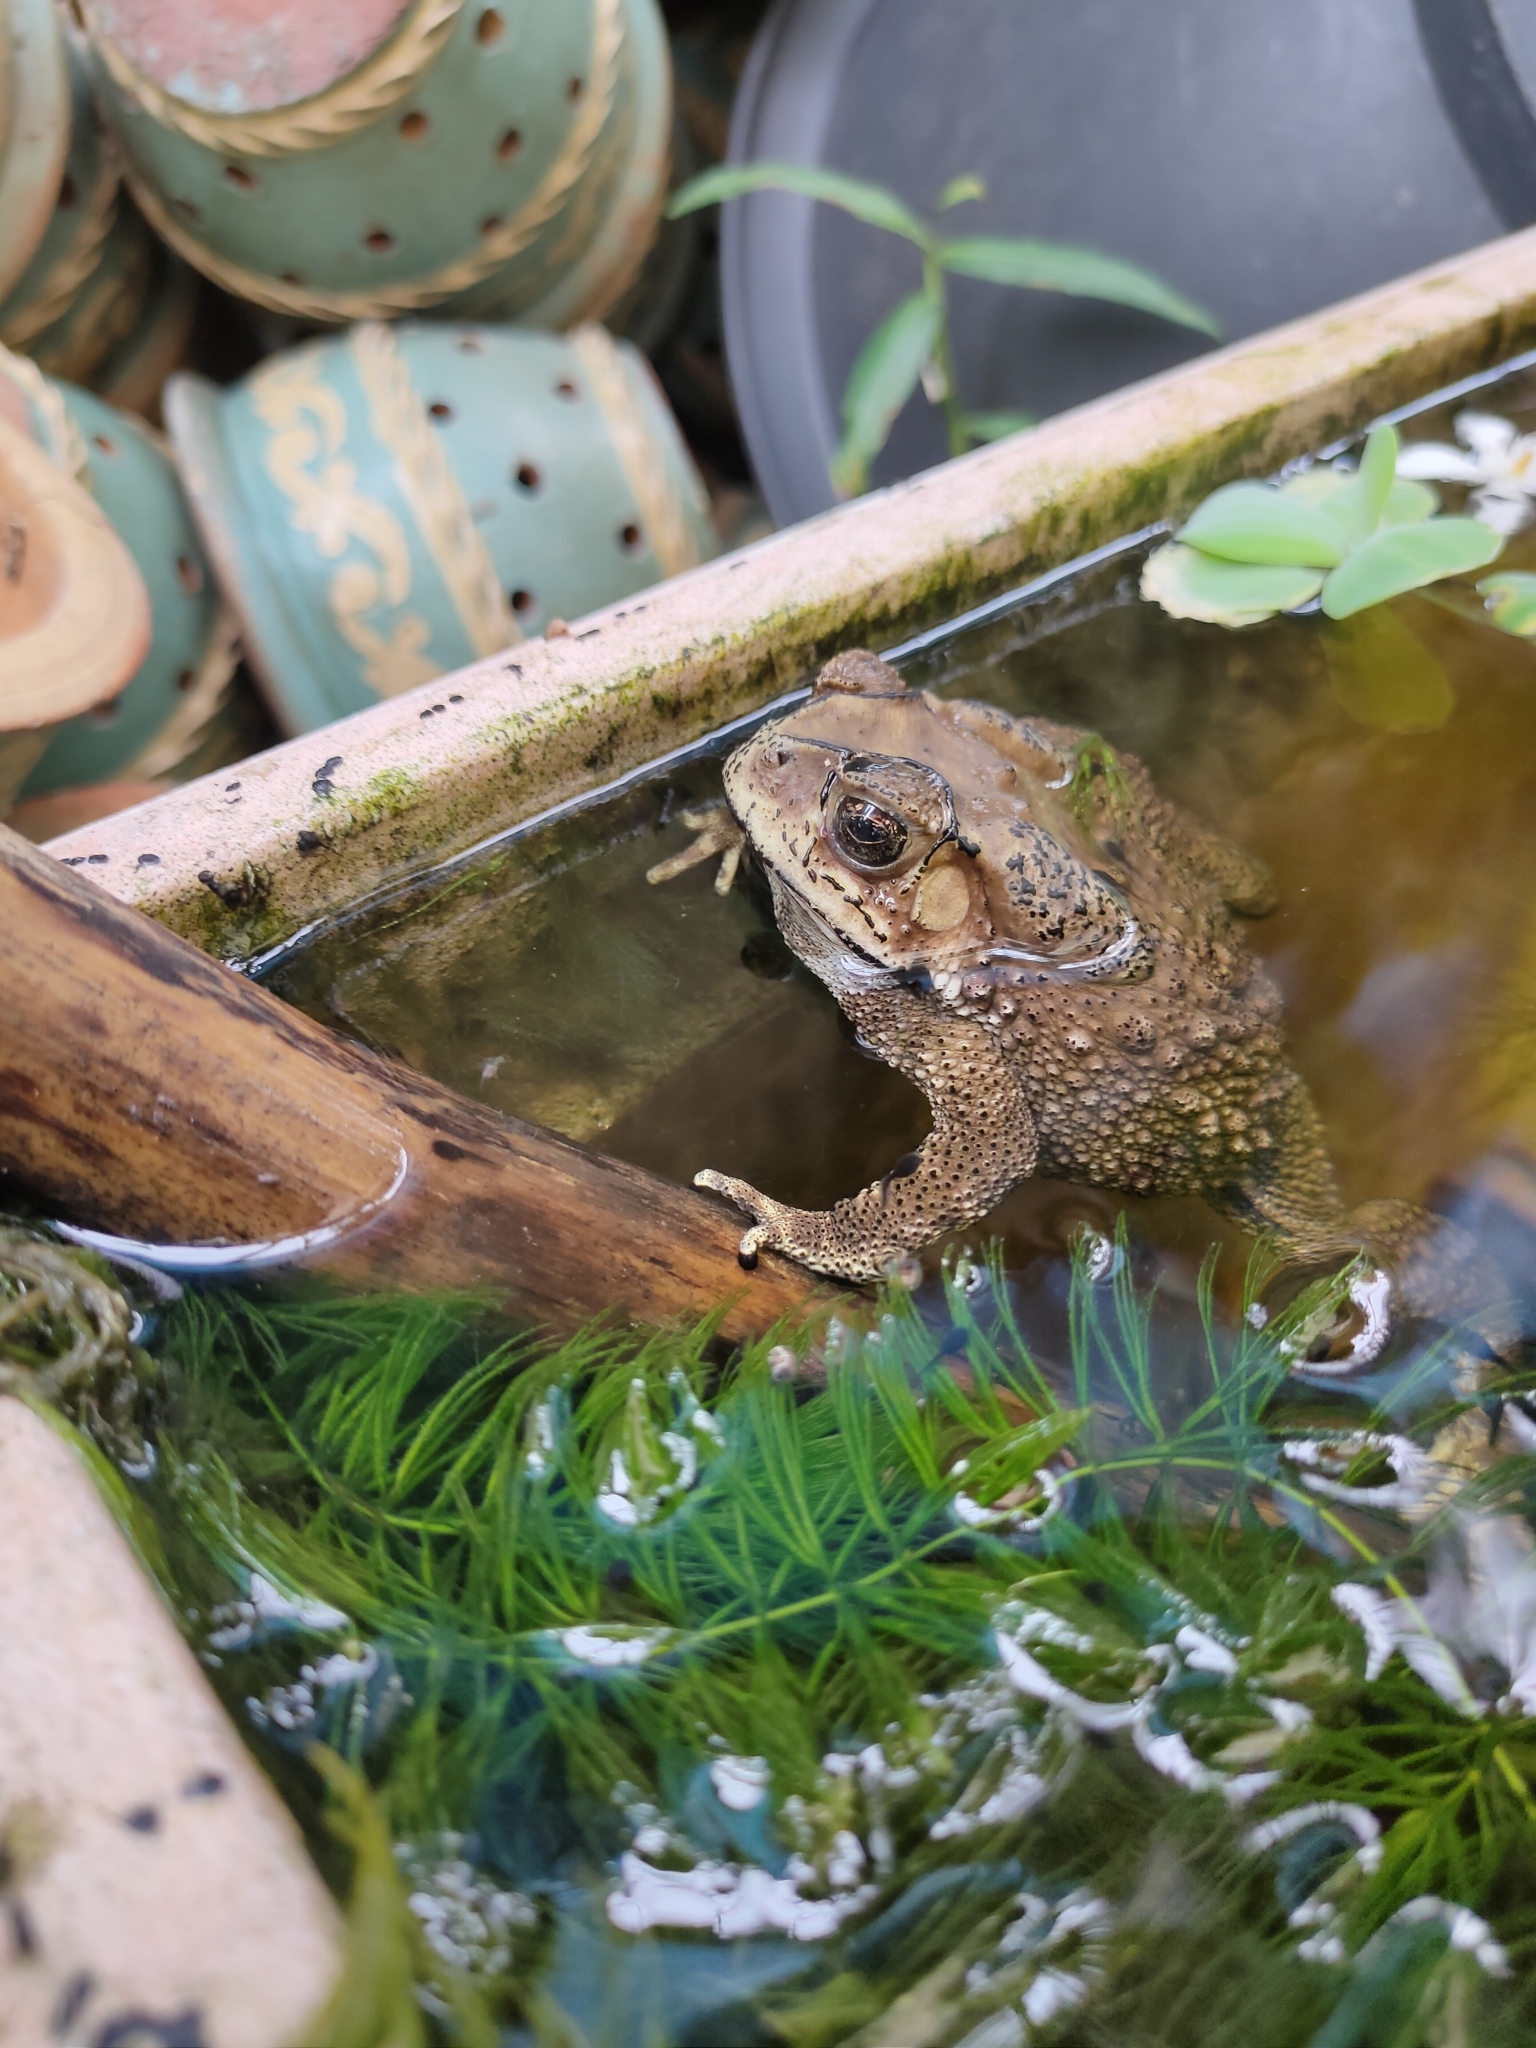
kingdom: Animalia
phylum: Chordata
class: Amphibia
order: Anura
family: Bufonidae
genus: Duttaphrynus
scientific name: Duttaphrynus melanostictus
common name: Common sunda toad
